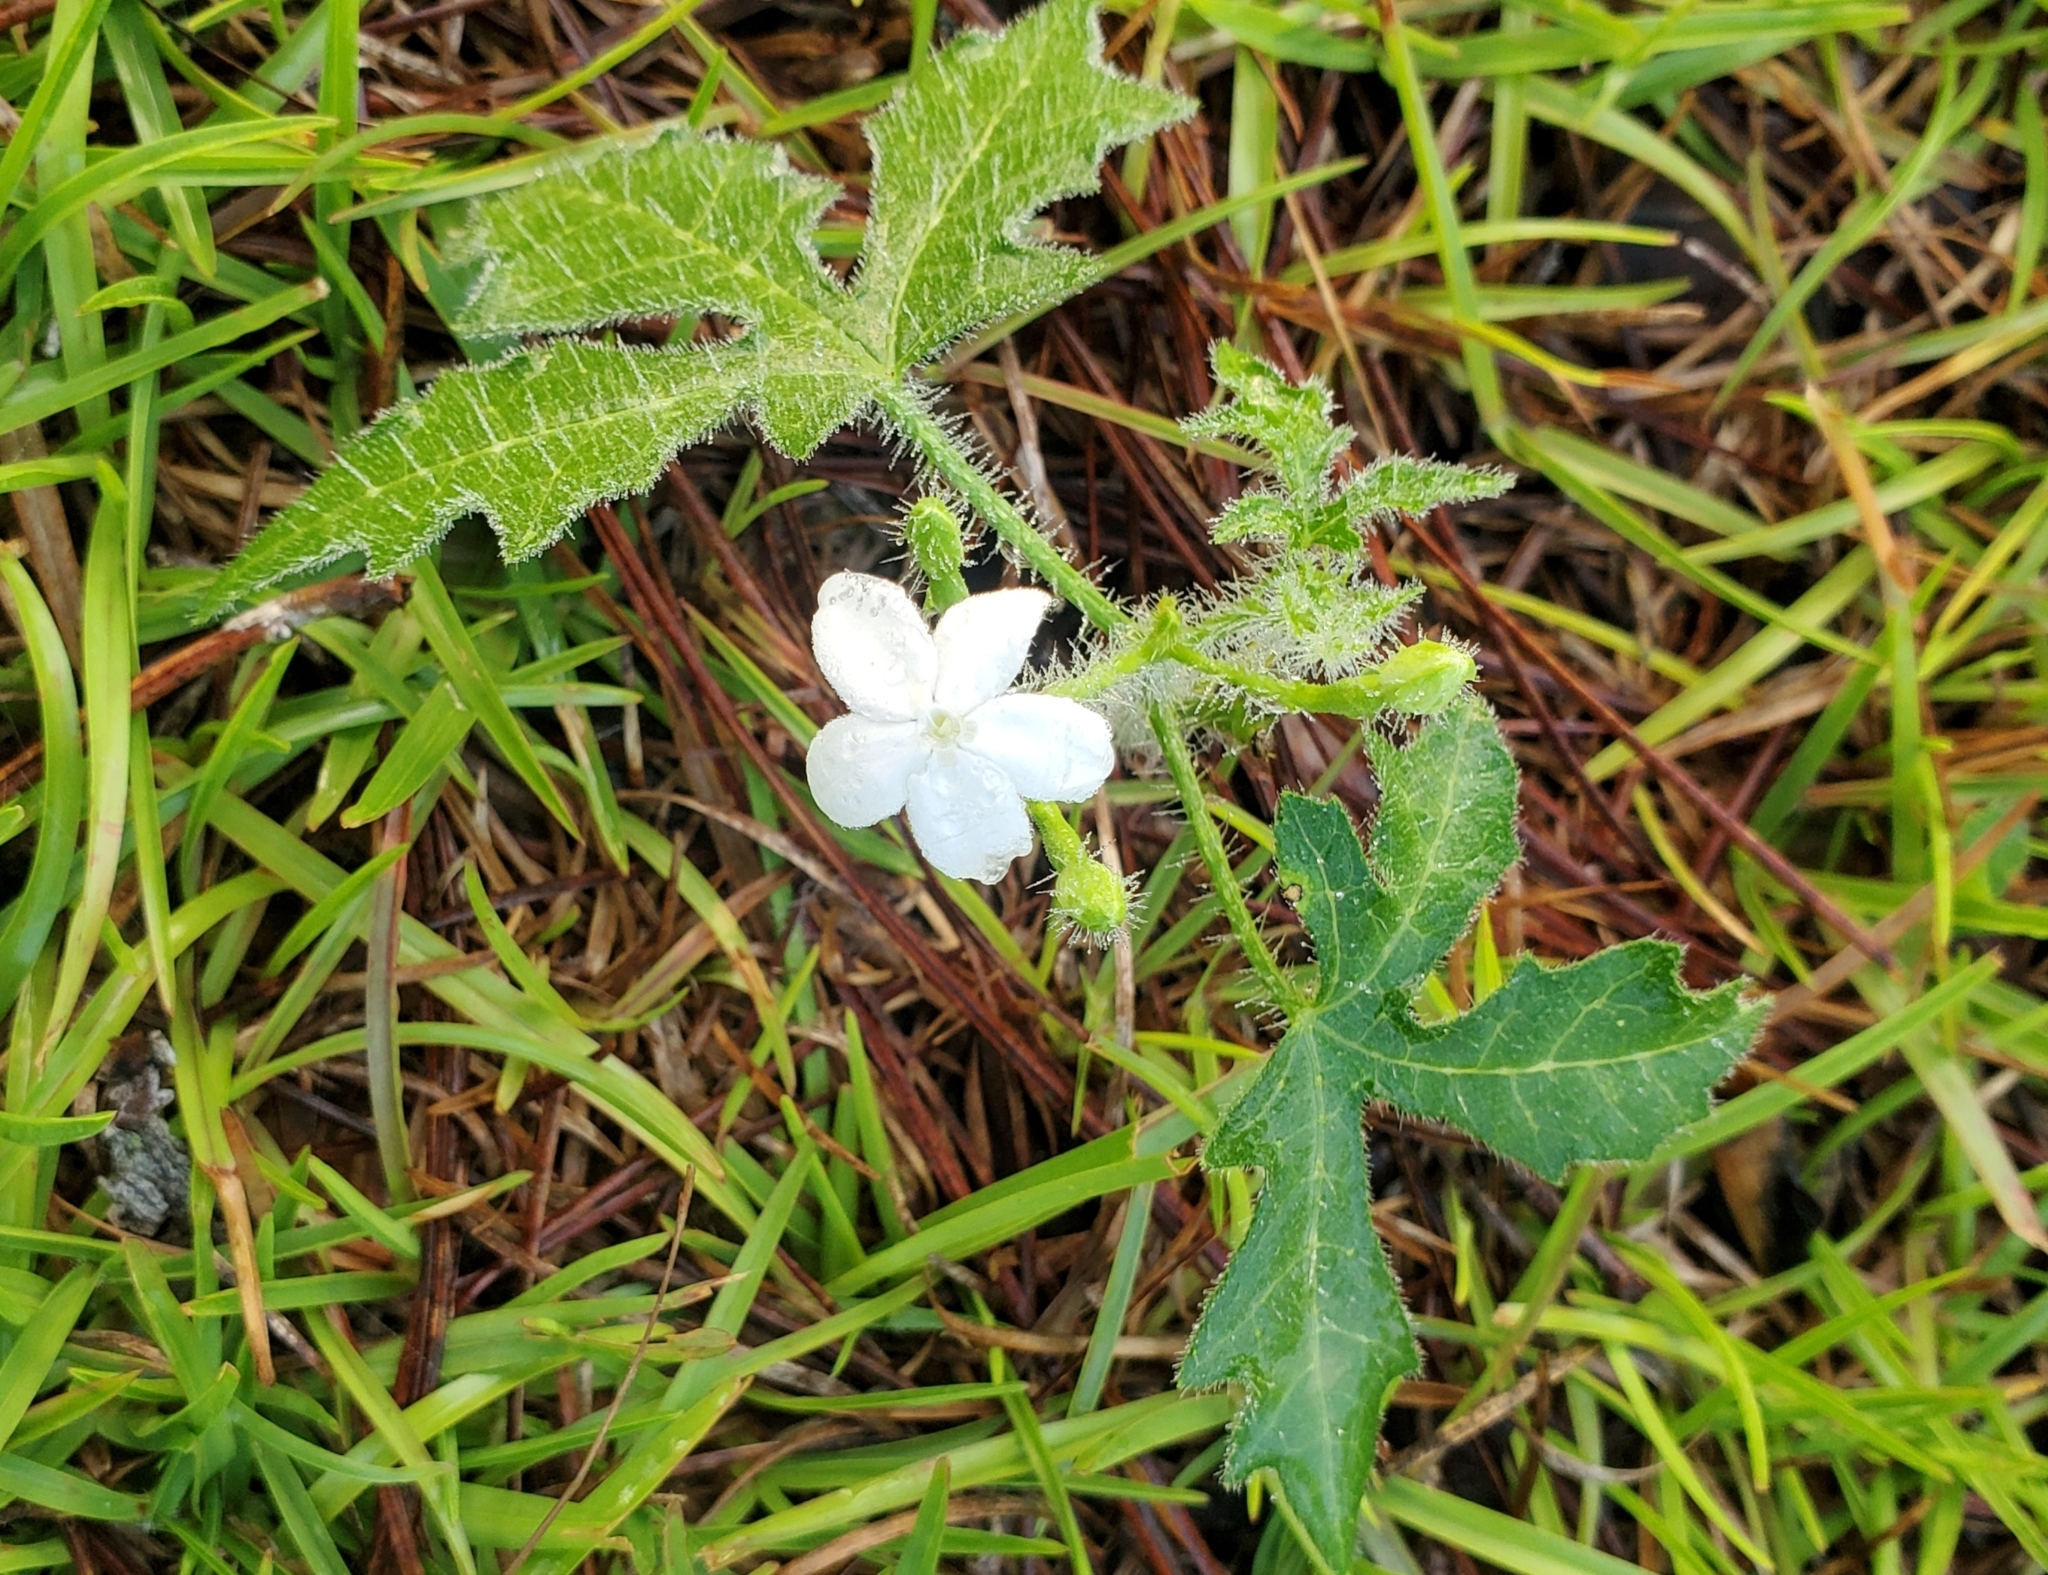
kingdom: Plantae
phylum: Tracheophyta
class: Magnoliopsida
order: Malpighiales
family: Euphorbiaceae
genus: Cnidoscolus
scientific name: Cnidoscolus stimulosus
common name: Bull-nettle
